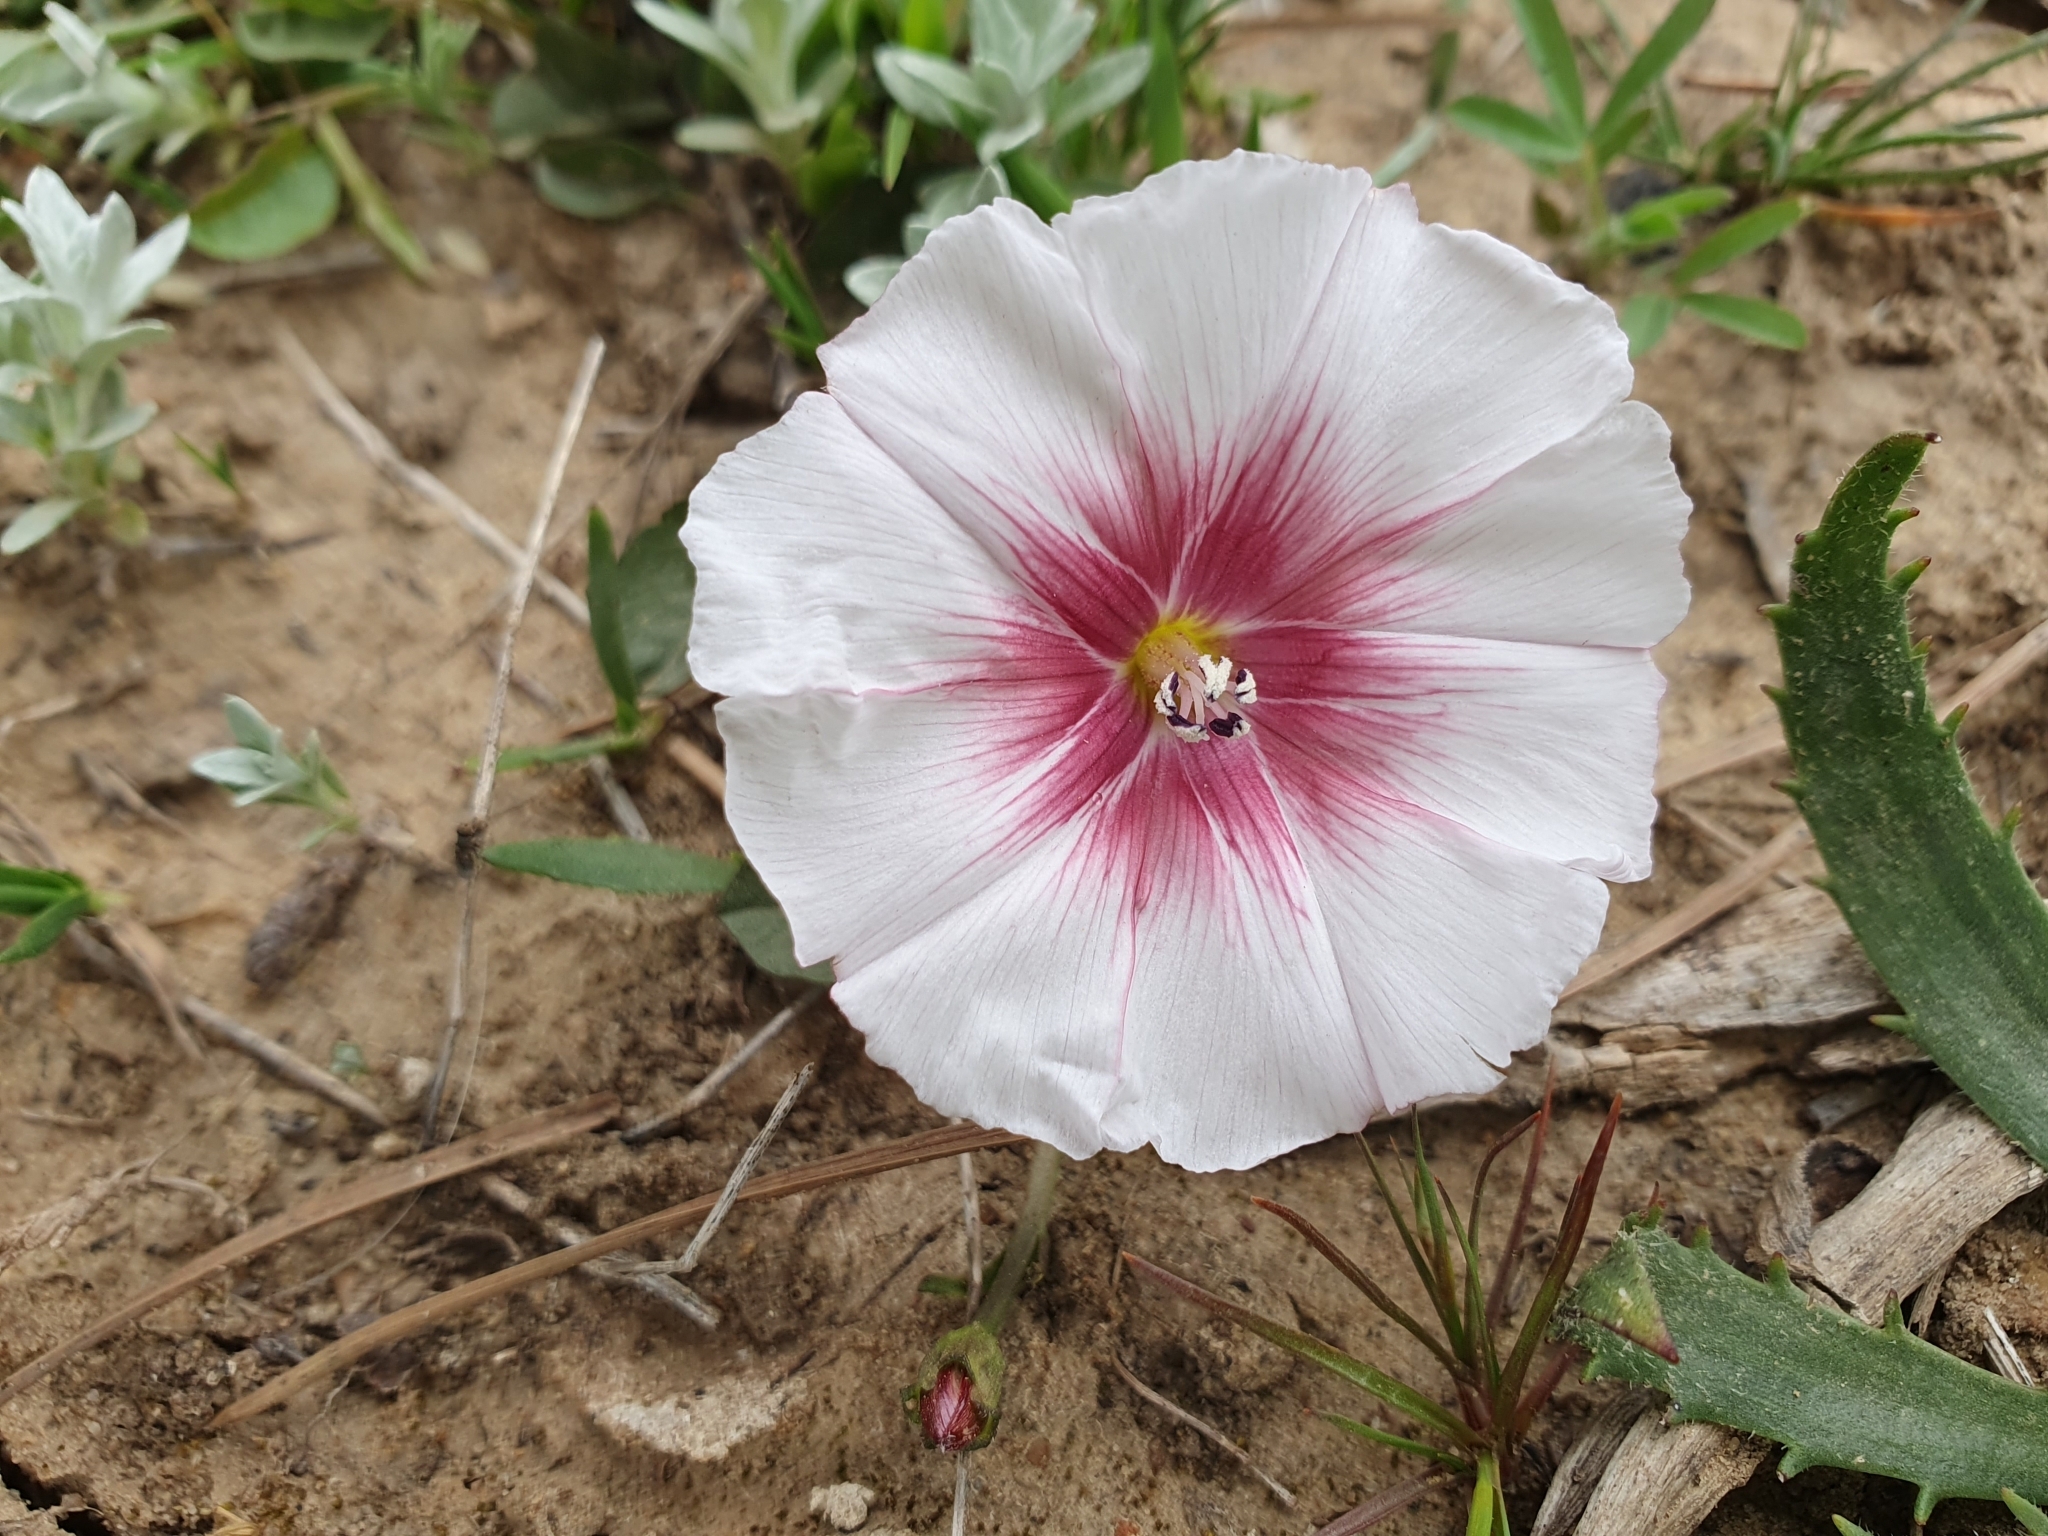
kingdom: Plantae
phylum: Tracheophyta
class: Magnoliopsida
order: Solanales
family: Convolvulaceae
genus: Convolvulus
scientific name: Convolvulus durandoi
